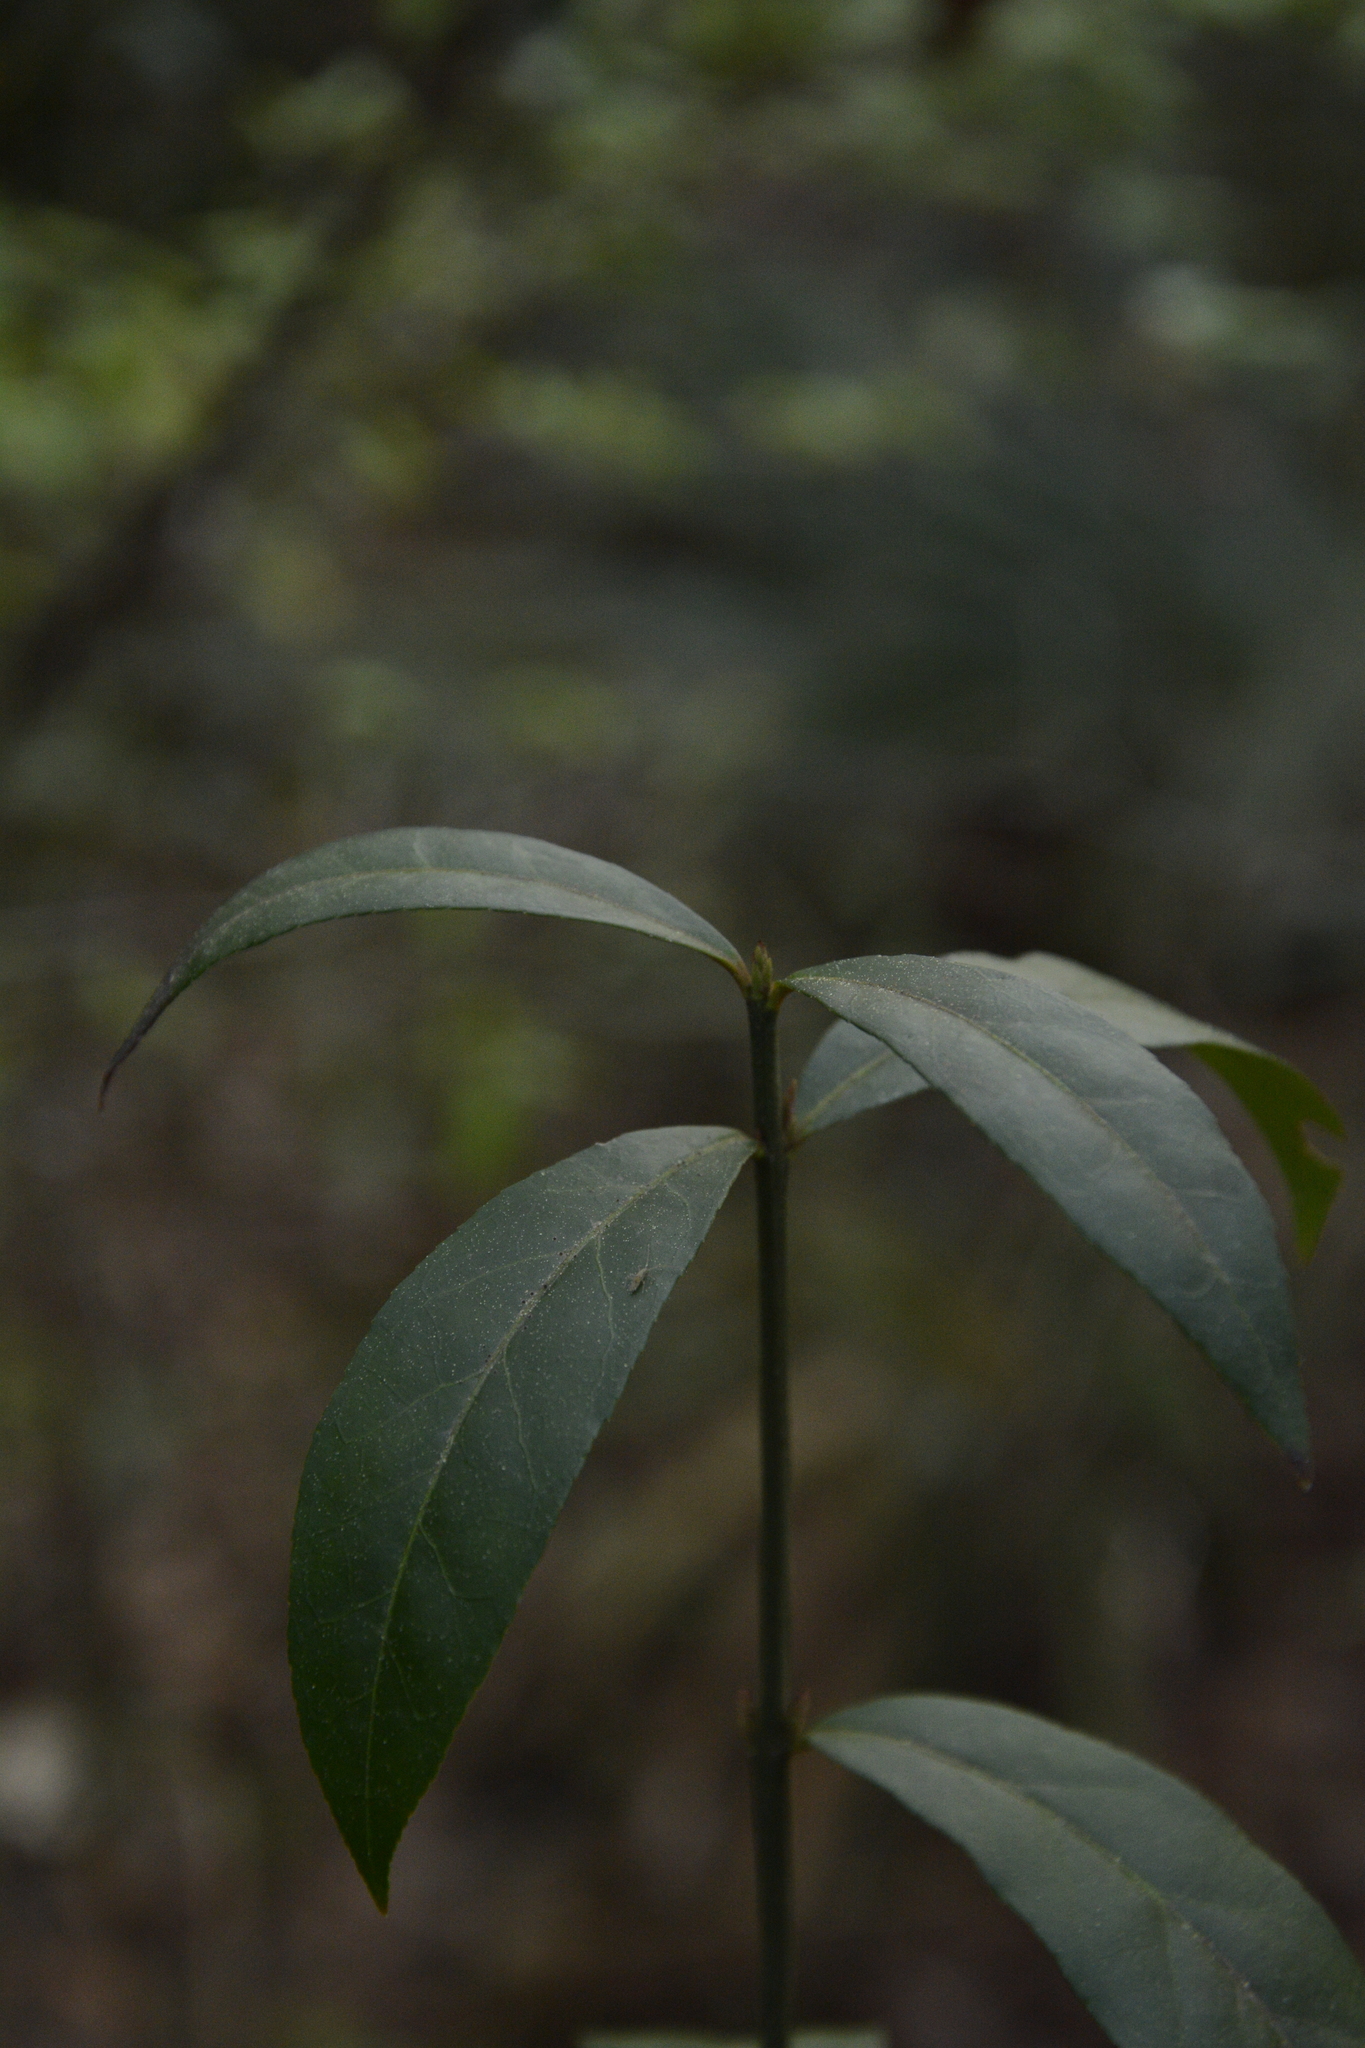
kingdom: Plantae
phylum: Tracheophyta
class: Magnoliopsida
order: Celastrales
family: Celastraceae
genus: Euonymus
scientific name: Euonymus americanus
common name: Bursting-heart
